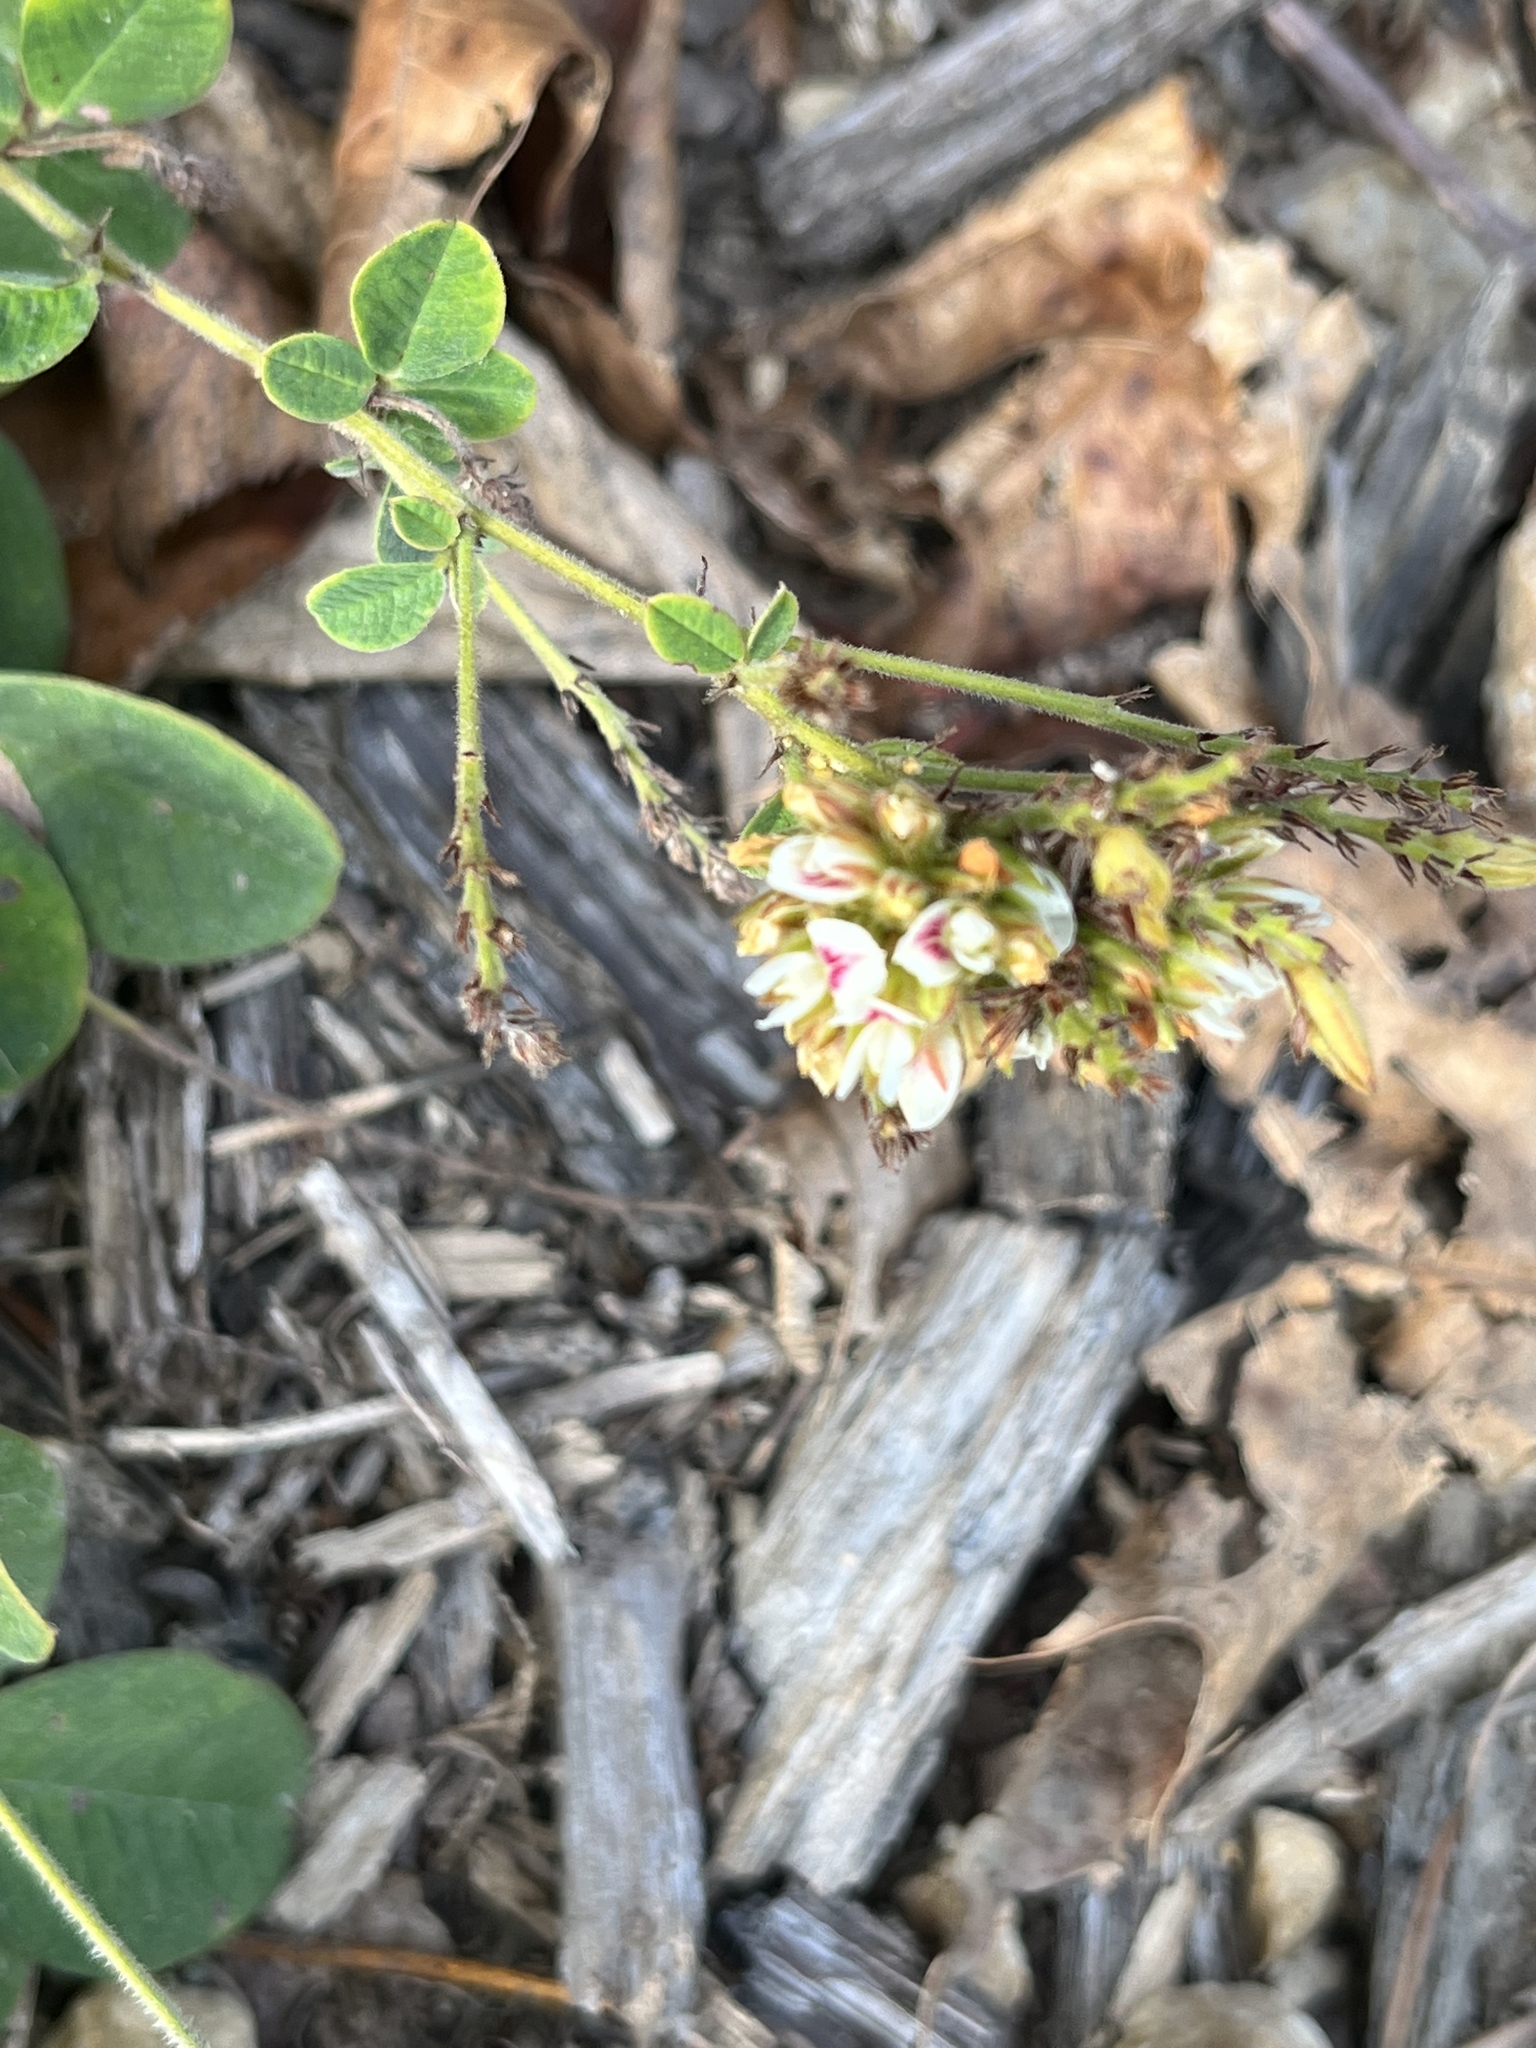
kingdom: Plantae
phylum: Tracheophyta
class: Magnoliopsida
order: Fabales
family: Fabaceae
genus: Lespedeza
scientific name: Lespedeza hirta
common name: Hairy lespedeza
